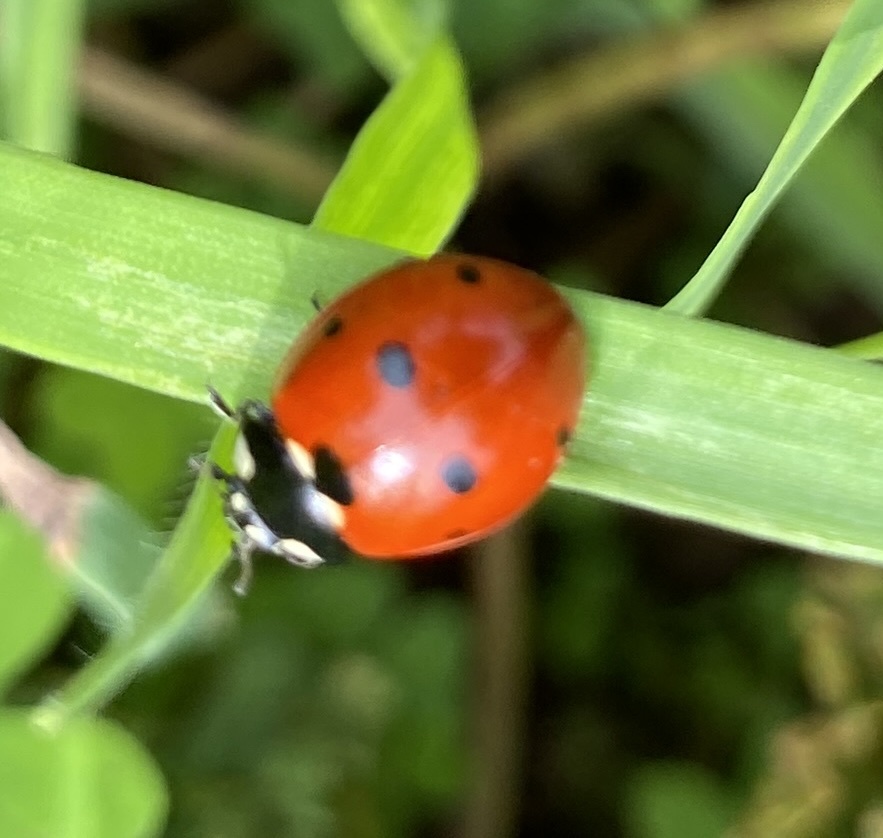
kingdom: Animalia
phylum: Arthropoda
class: Insecta
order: Coleoptera
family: Coccinellidae
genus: Coccinella
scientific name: Coccinella septempunctata
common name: Sevenspotted lady beetle
